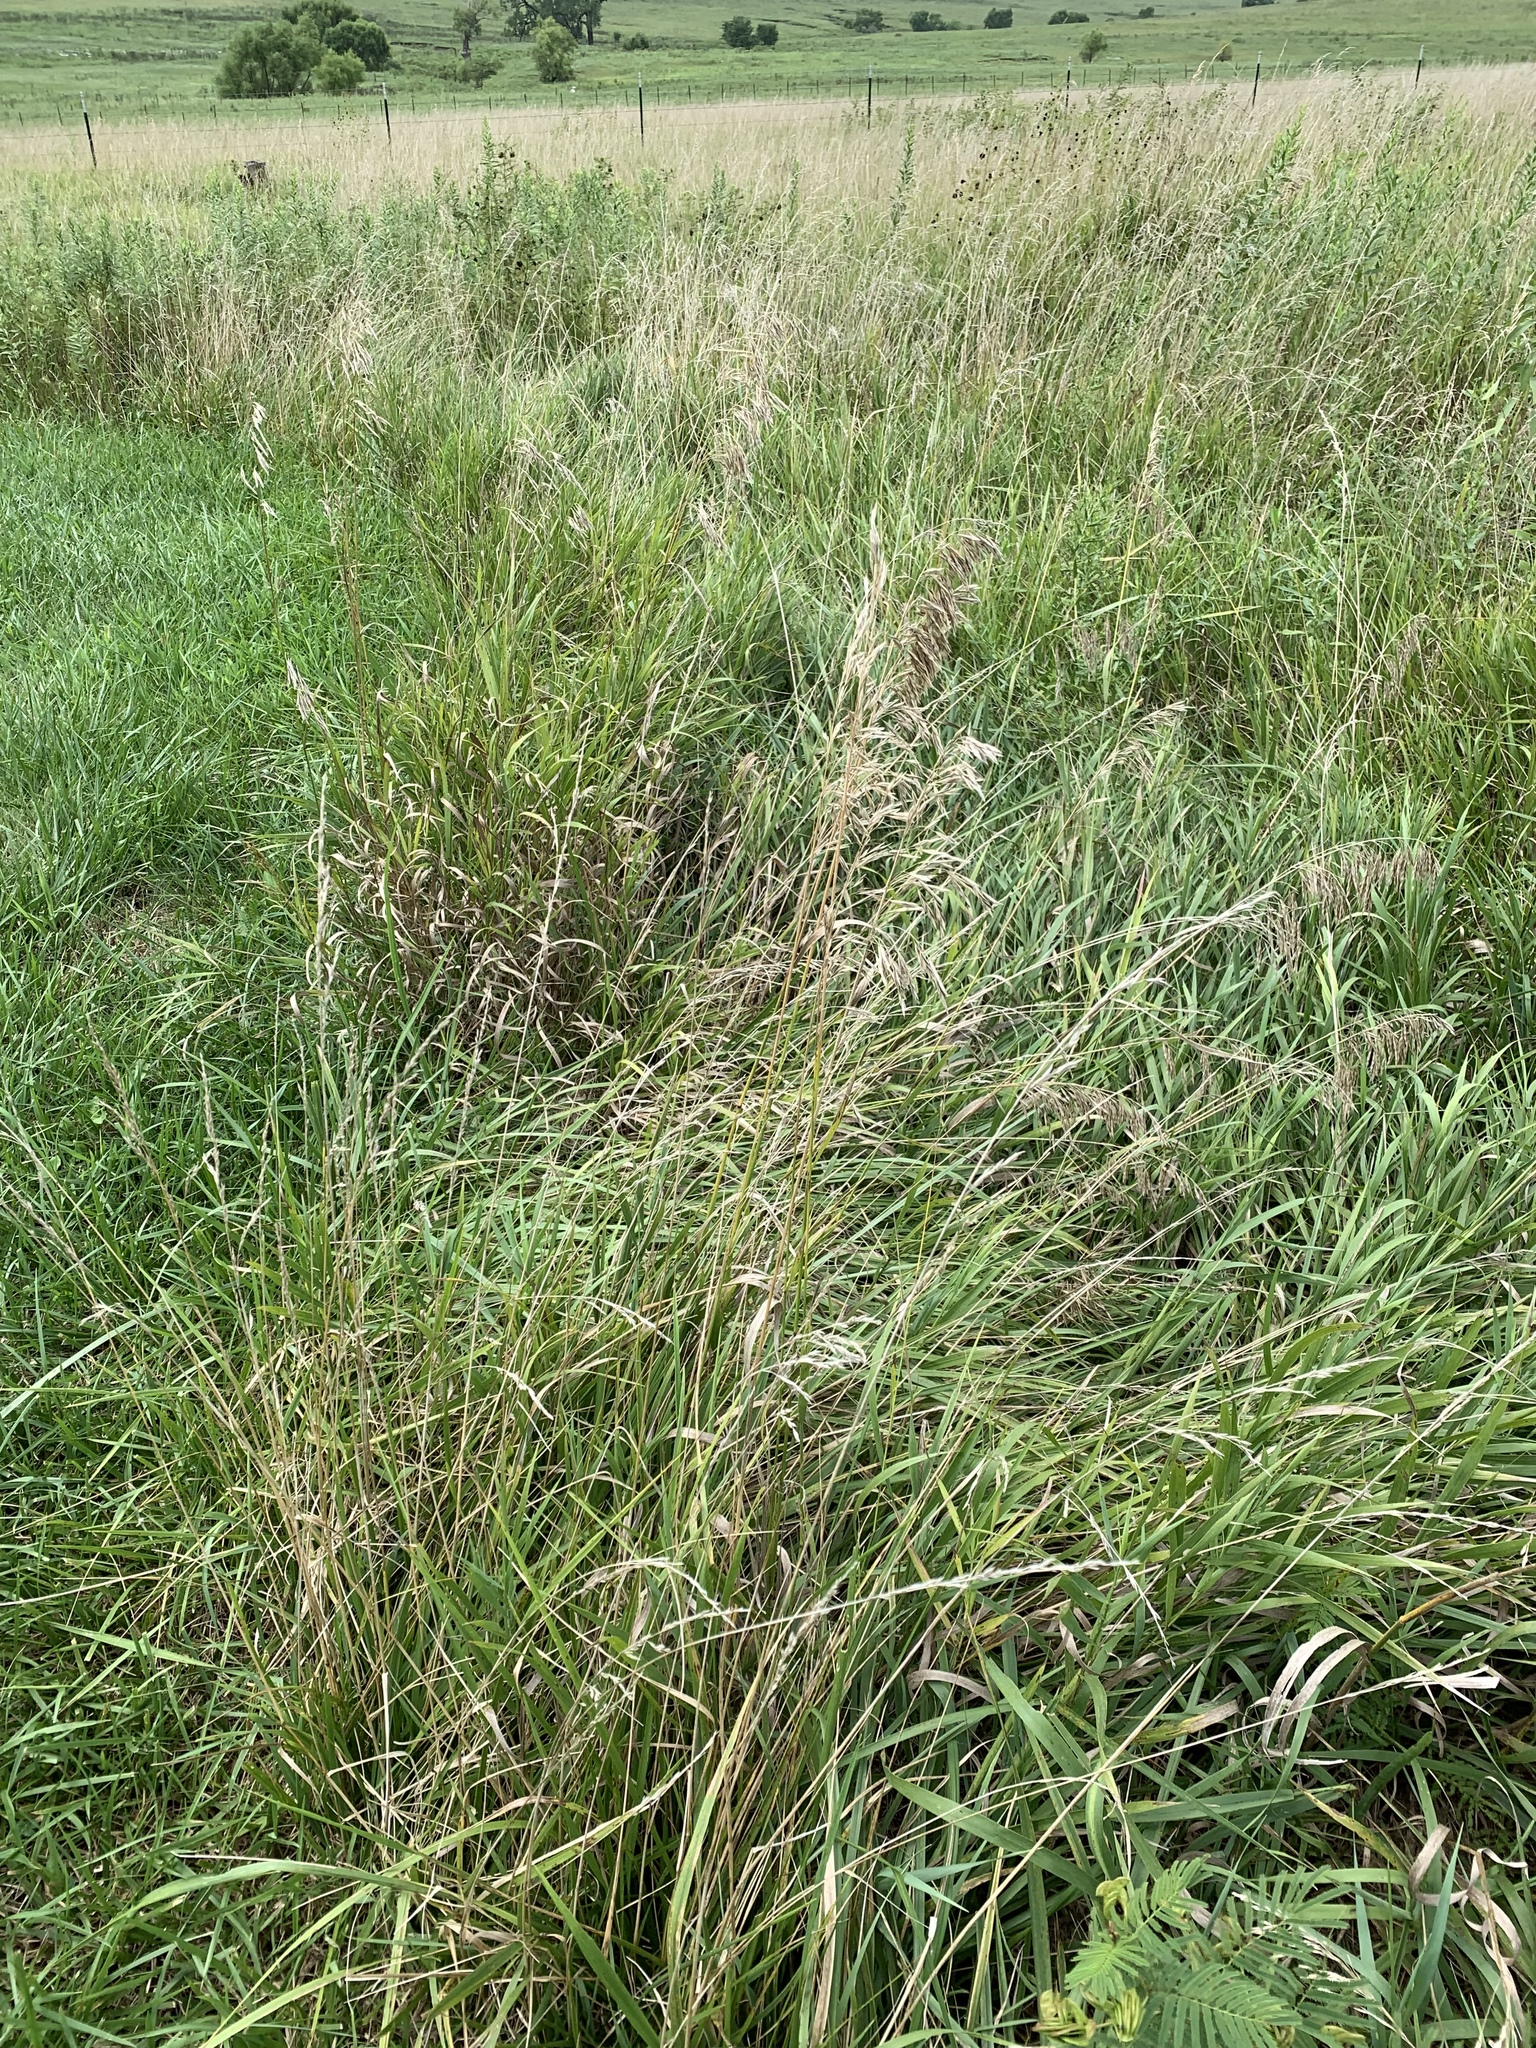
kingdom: Plantae
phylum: Tracheophyta
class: Liliopsida
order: Poales
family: Poaceae
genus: Bromus
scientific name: Bromus inermis
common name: Smooth brome
